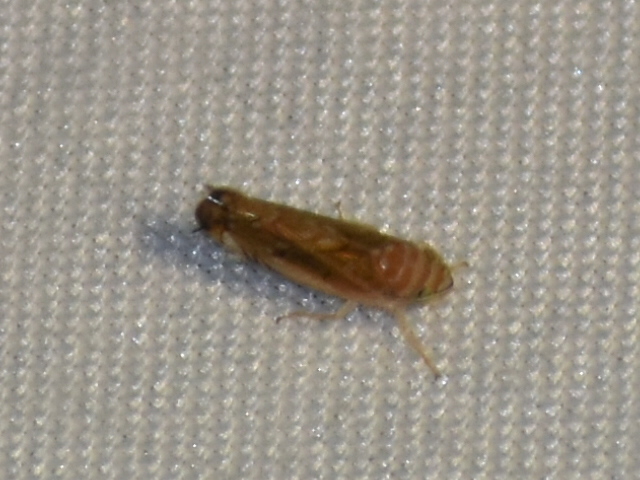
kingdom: Animalia
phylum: Arthropoda
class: Insecta
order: Hemiptera
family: Cicadellidae
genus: Scaphoideus
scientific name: Scaphoideus
